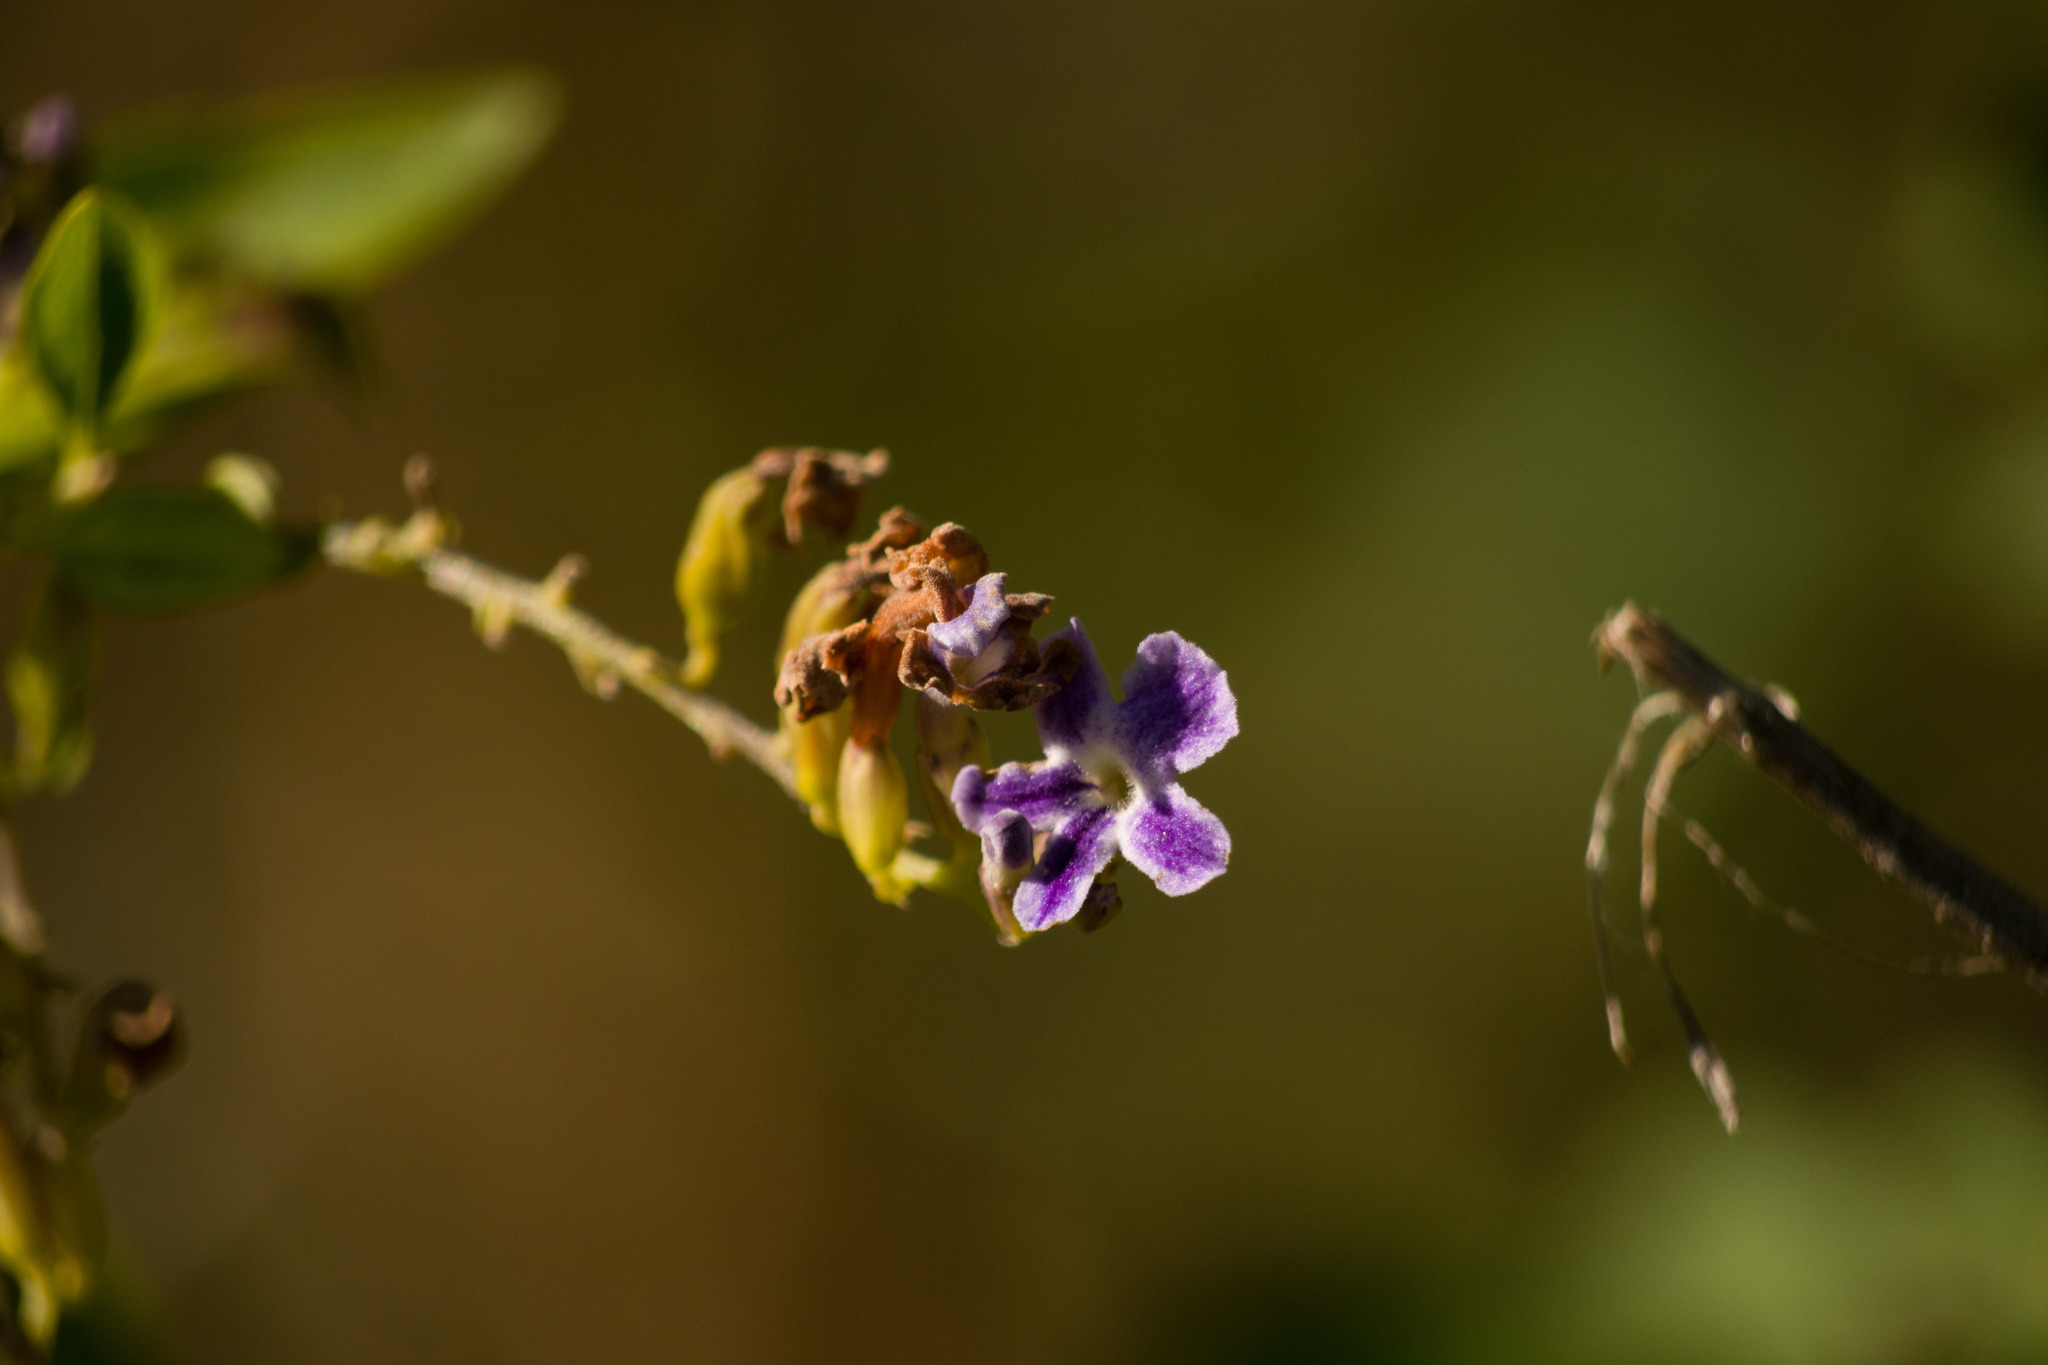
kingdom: Plantae
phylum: Tracheophyta
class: Magnoliopsida
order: Lamiales
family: Verbenaceae
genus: Duranta
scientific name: Duranta erecta
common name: Golden dewdrops
